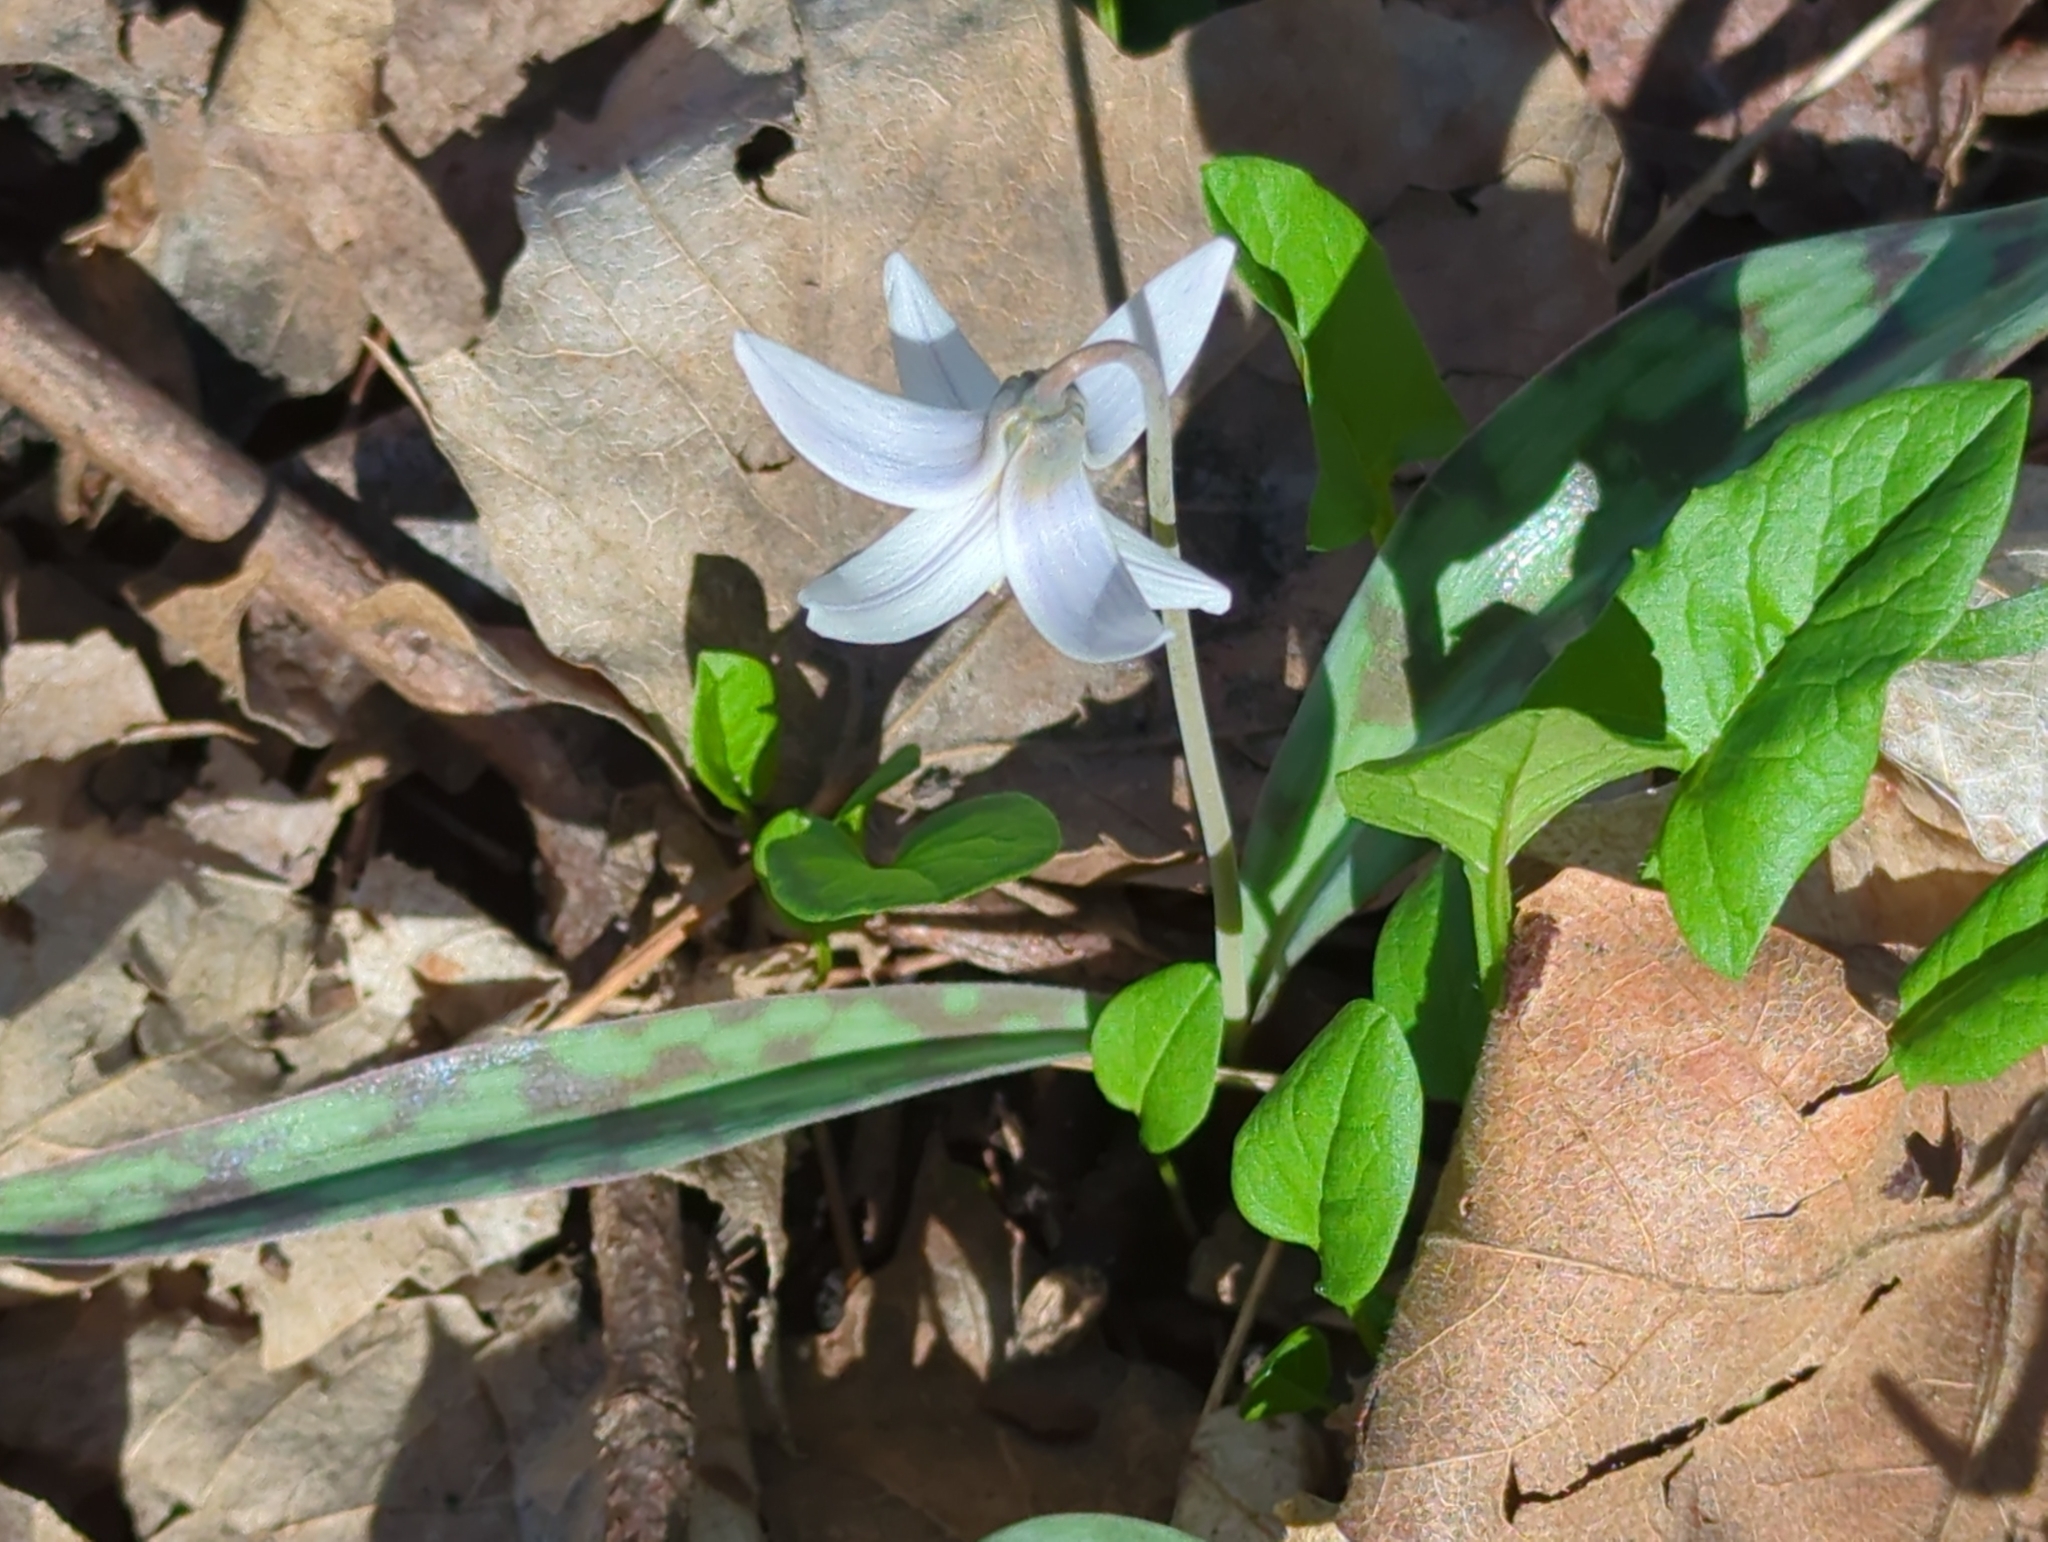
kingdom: Plantae
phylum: Tracheophyta
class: Liliopsida
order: Liliales
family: Liliaceae
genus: Erythronium
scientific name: Erythronium albidum
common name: White trout-lily
